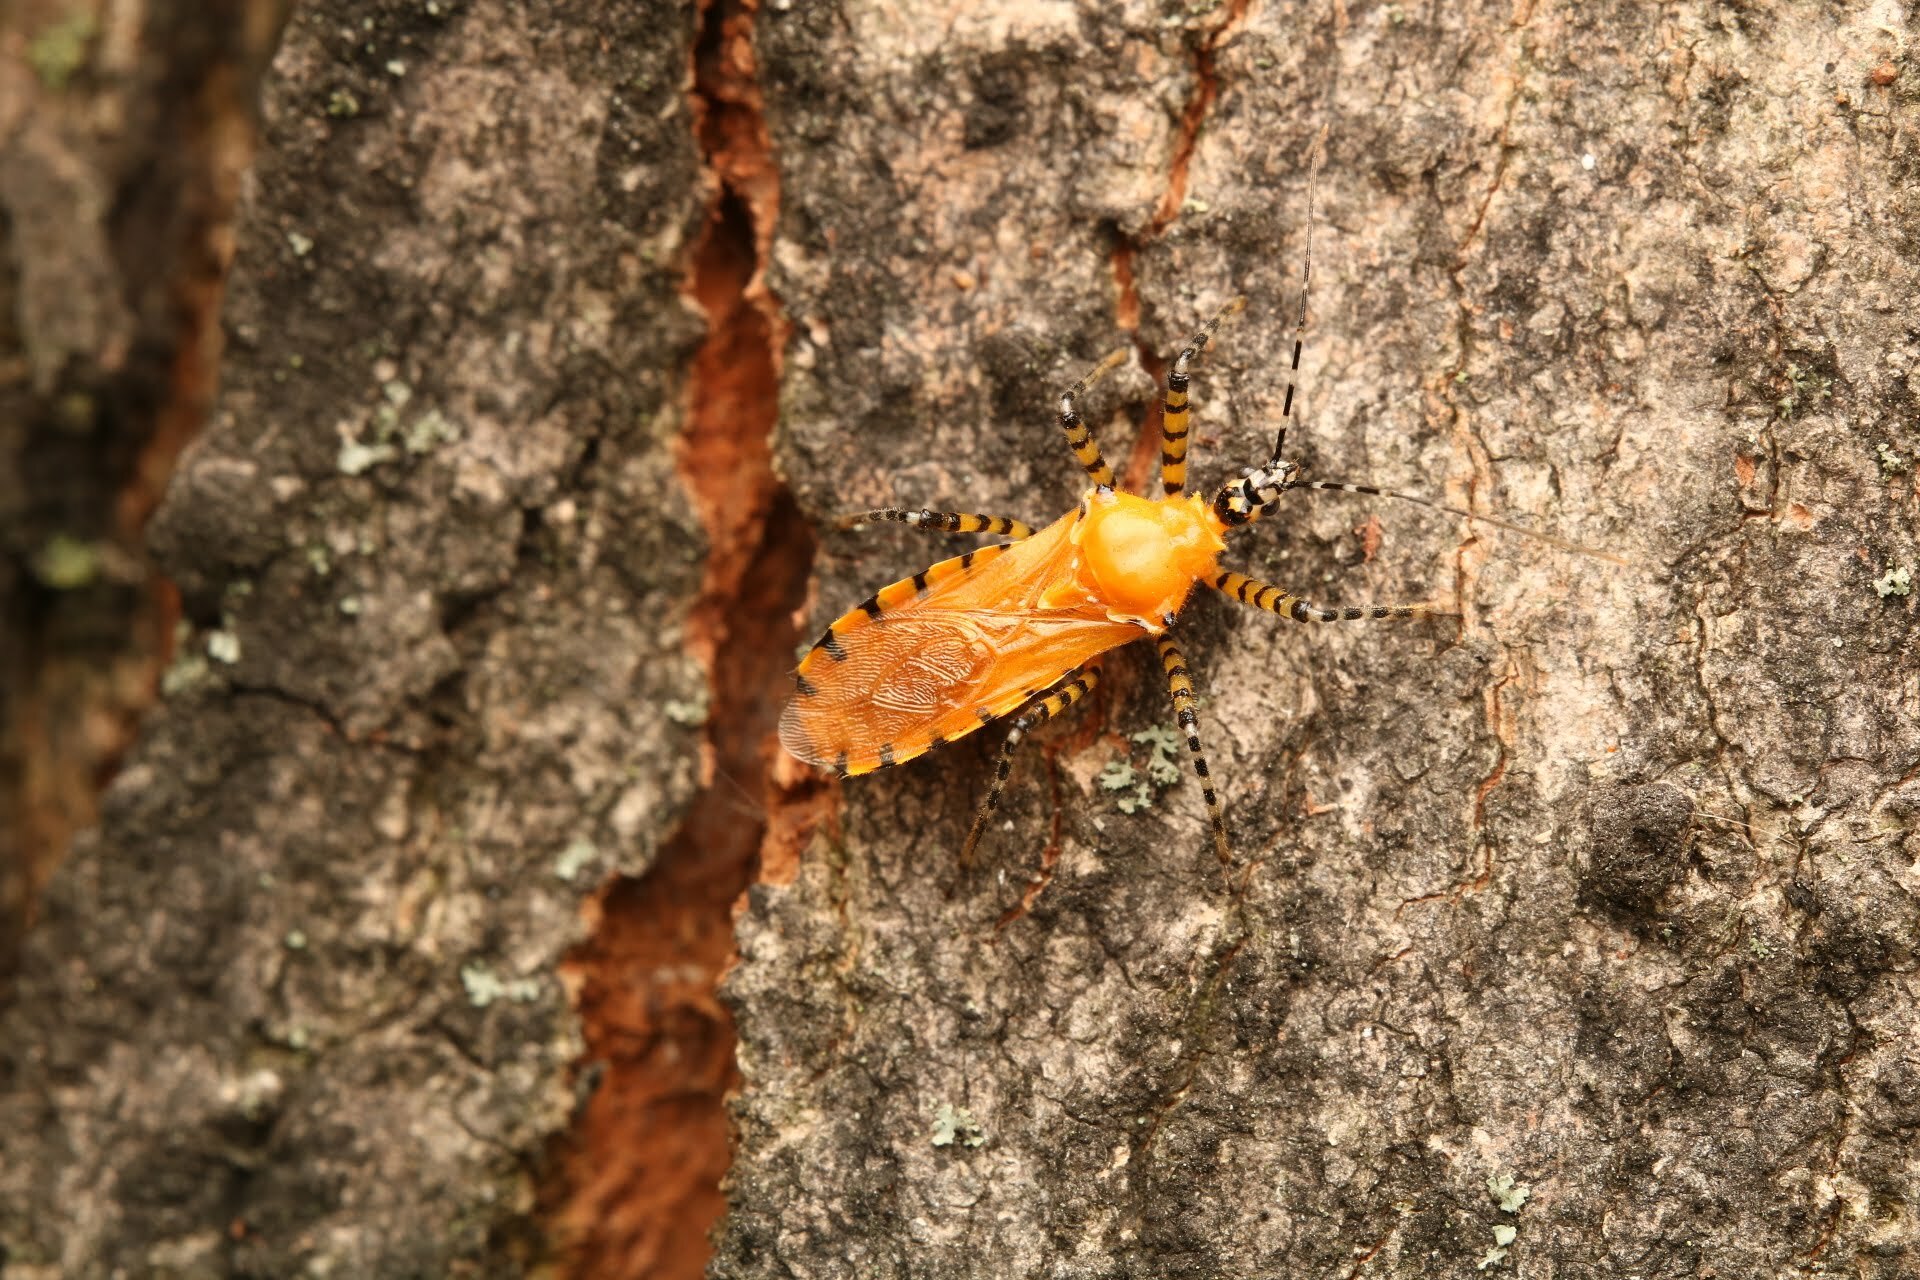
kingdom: Animalia
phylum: Arthropoda
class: Insecta
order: Hemiptera
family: Reduviidae
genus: Pselliopus
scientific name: Pselliopus barberi
